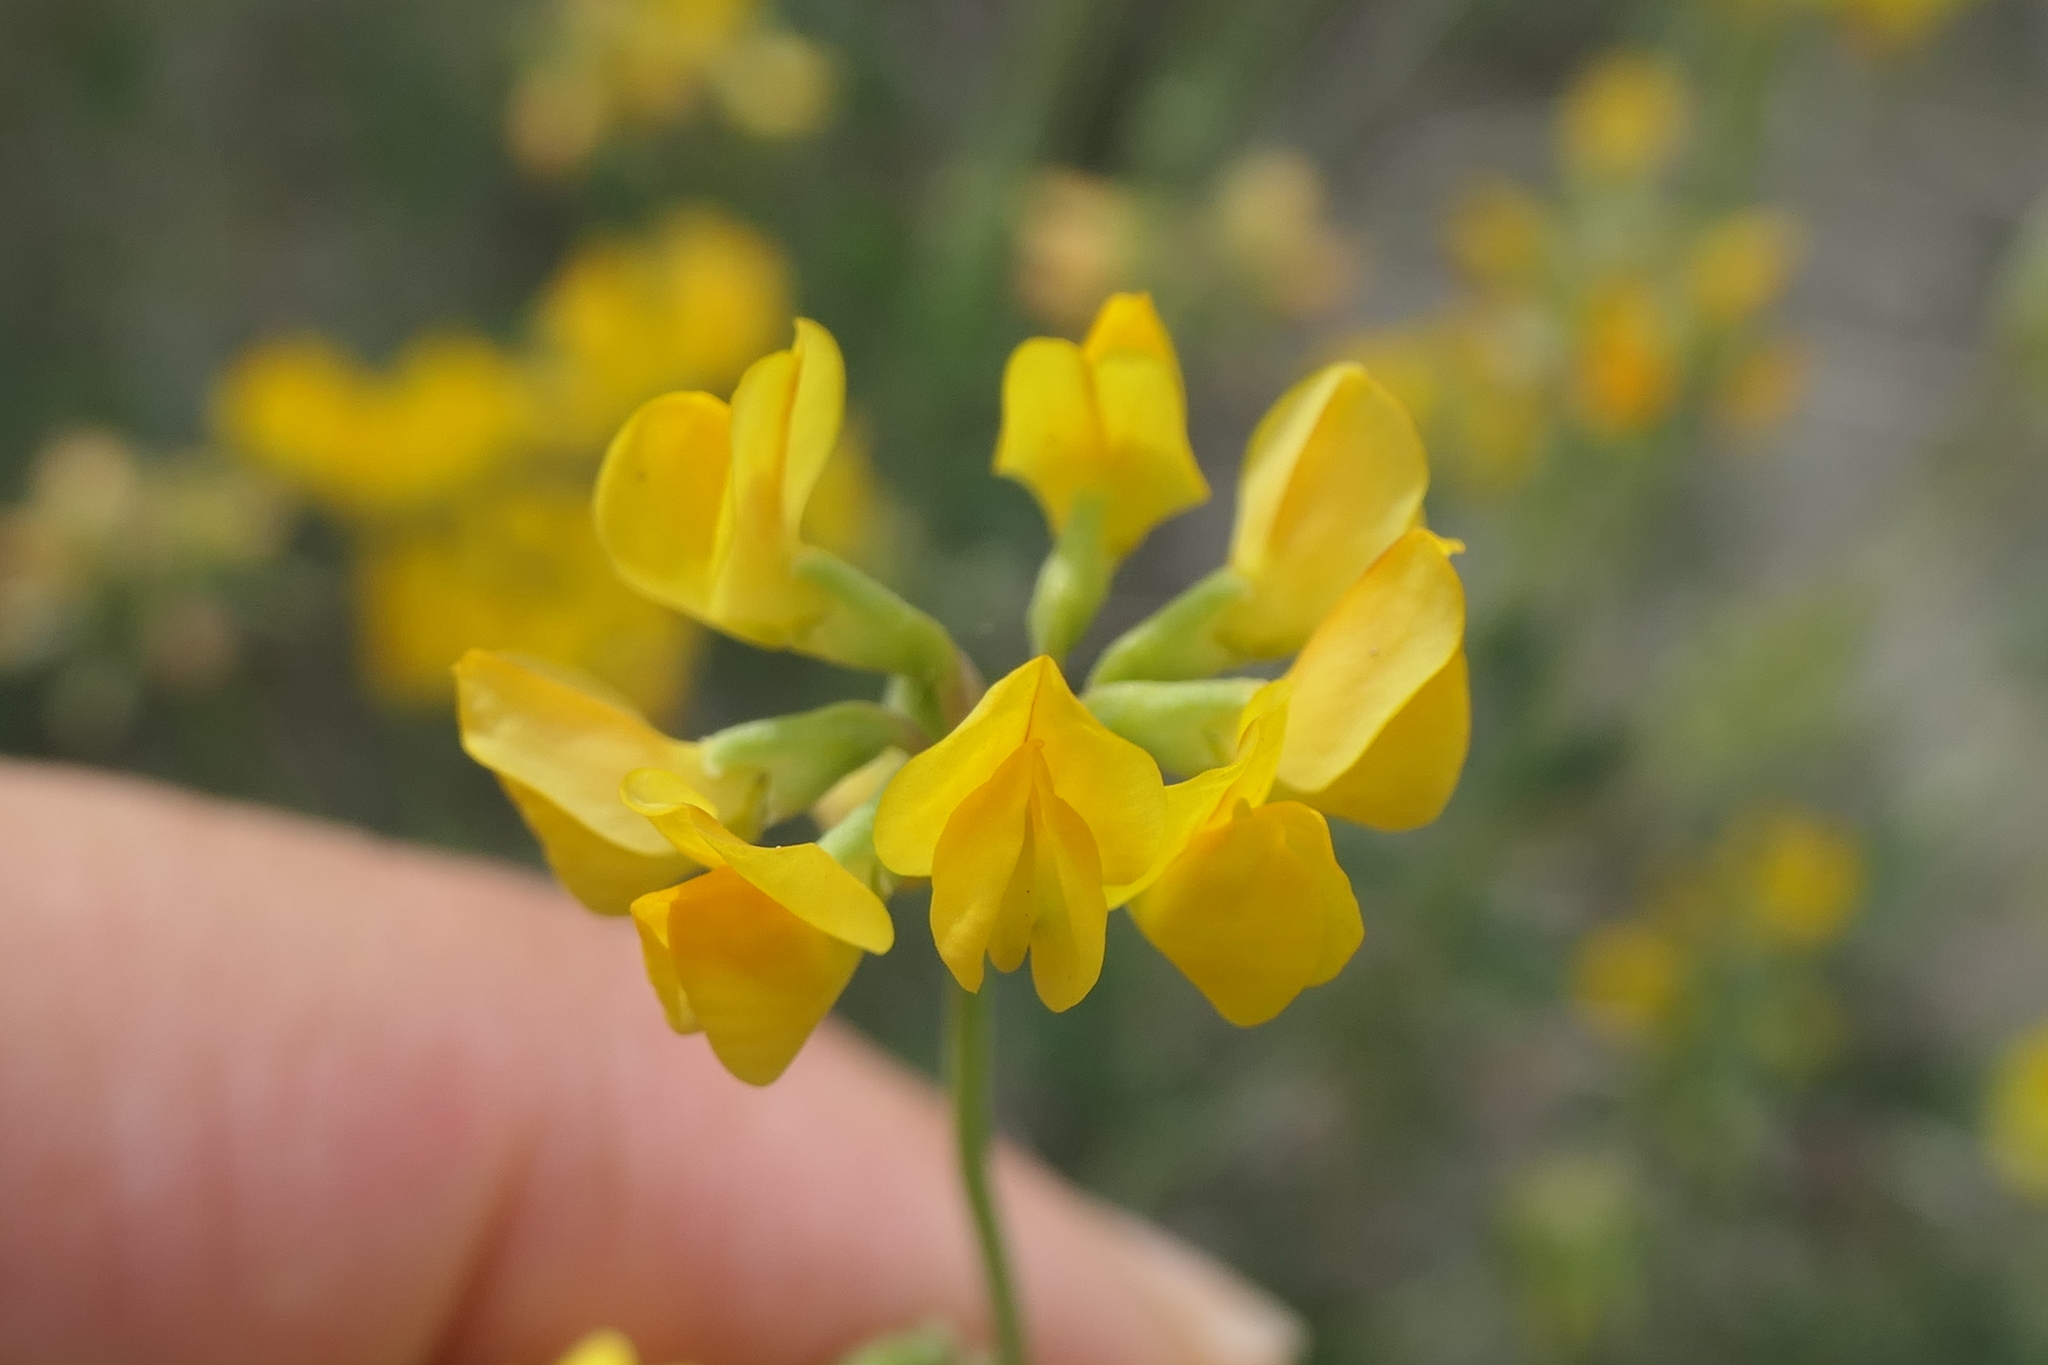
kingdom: Plantae
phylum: Tracheophyta
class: Magnoliopsida
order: Fabales
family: Fabaceae
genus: Coronilla
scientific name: Coronilla minima
